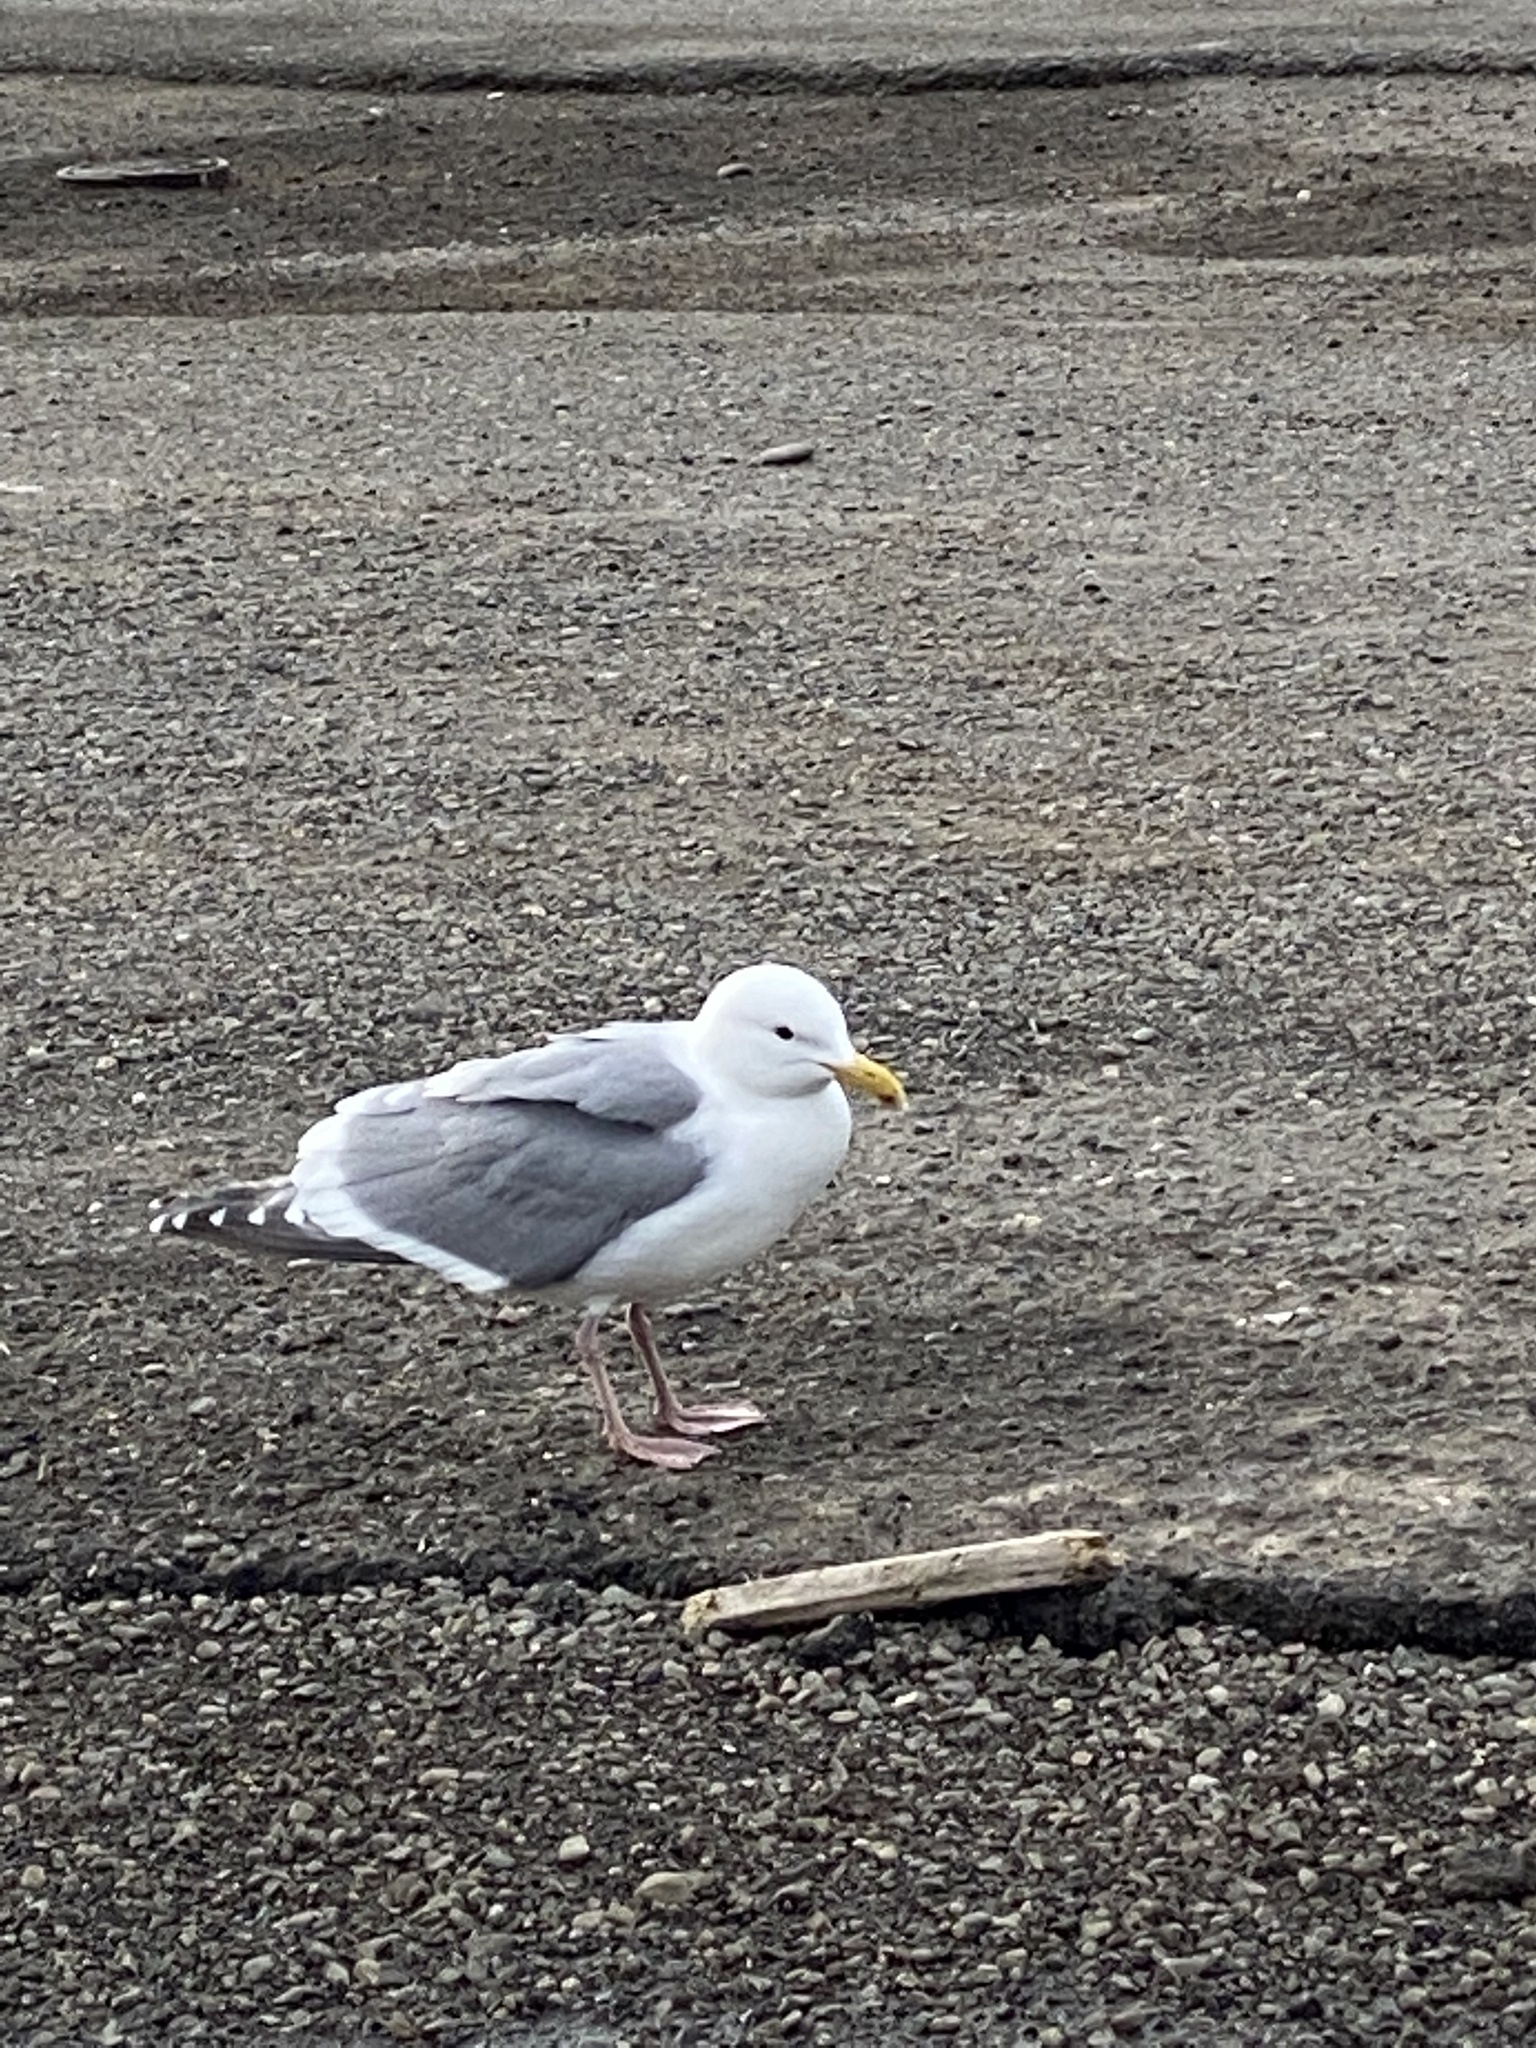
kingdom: Animalia
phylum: Chordata
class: Aves
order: Charadriiformes
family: Laridae
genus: Larus
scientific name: Larus
